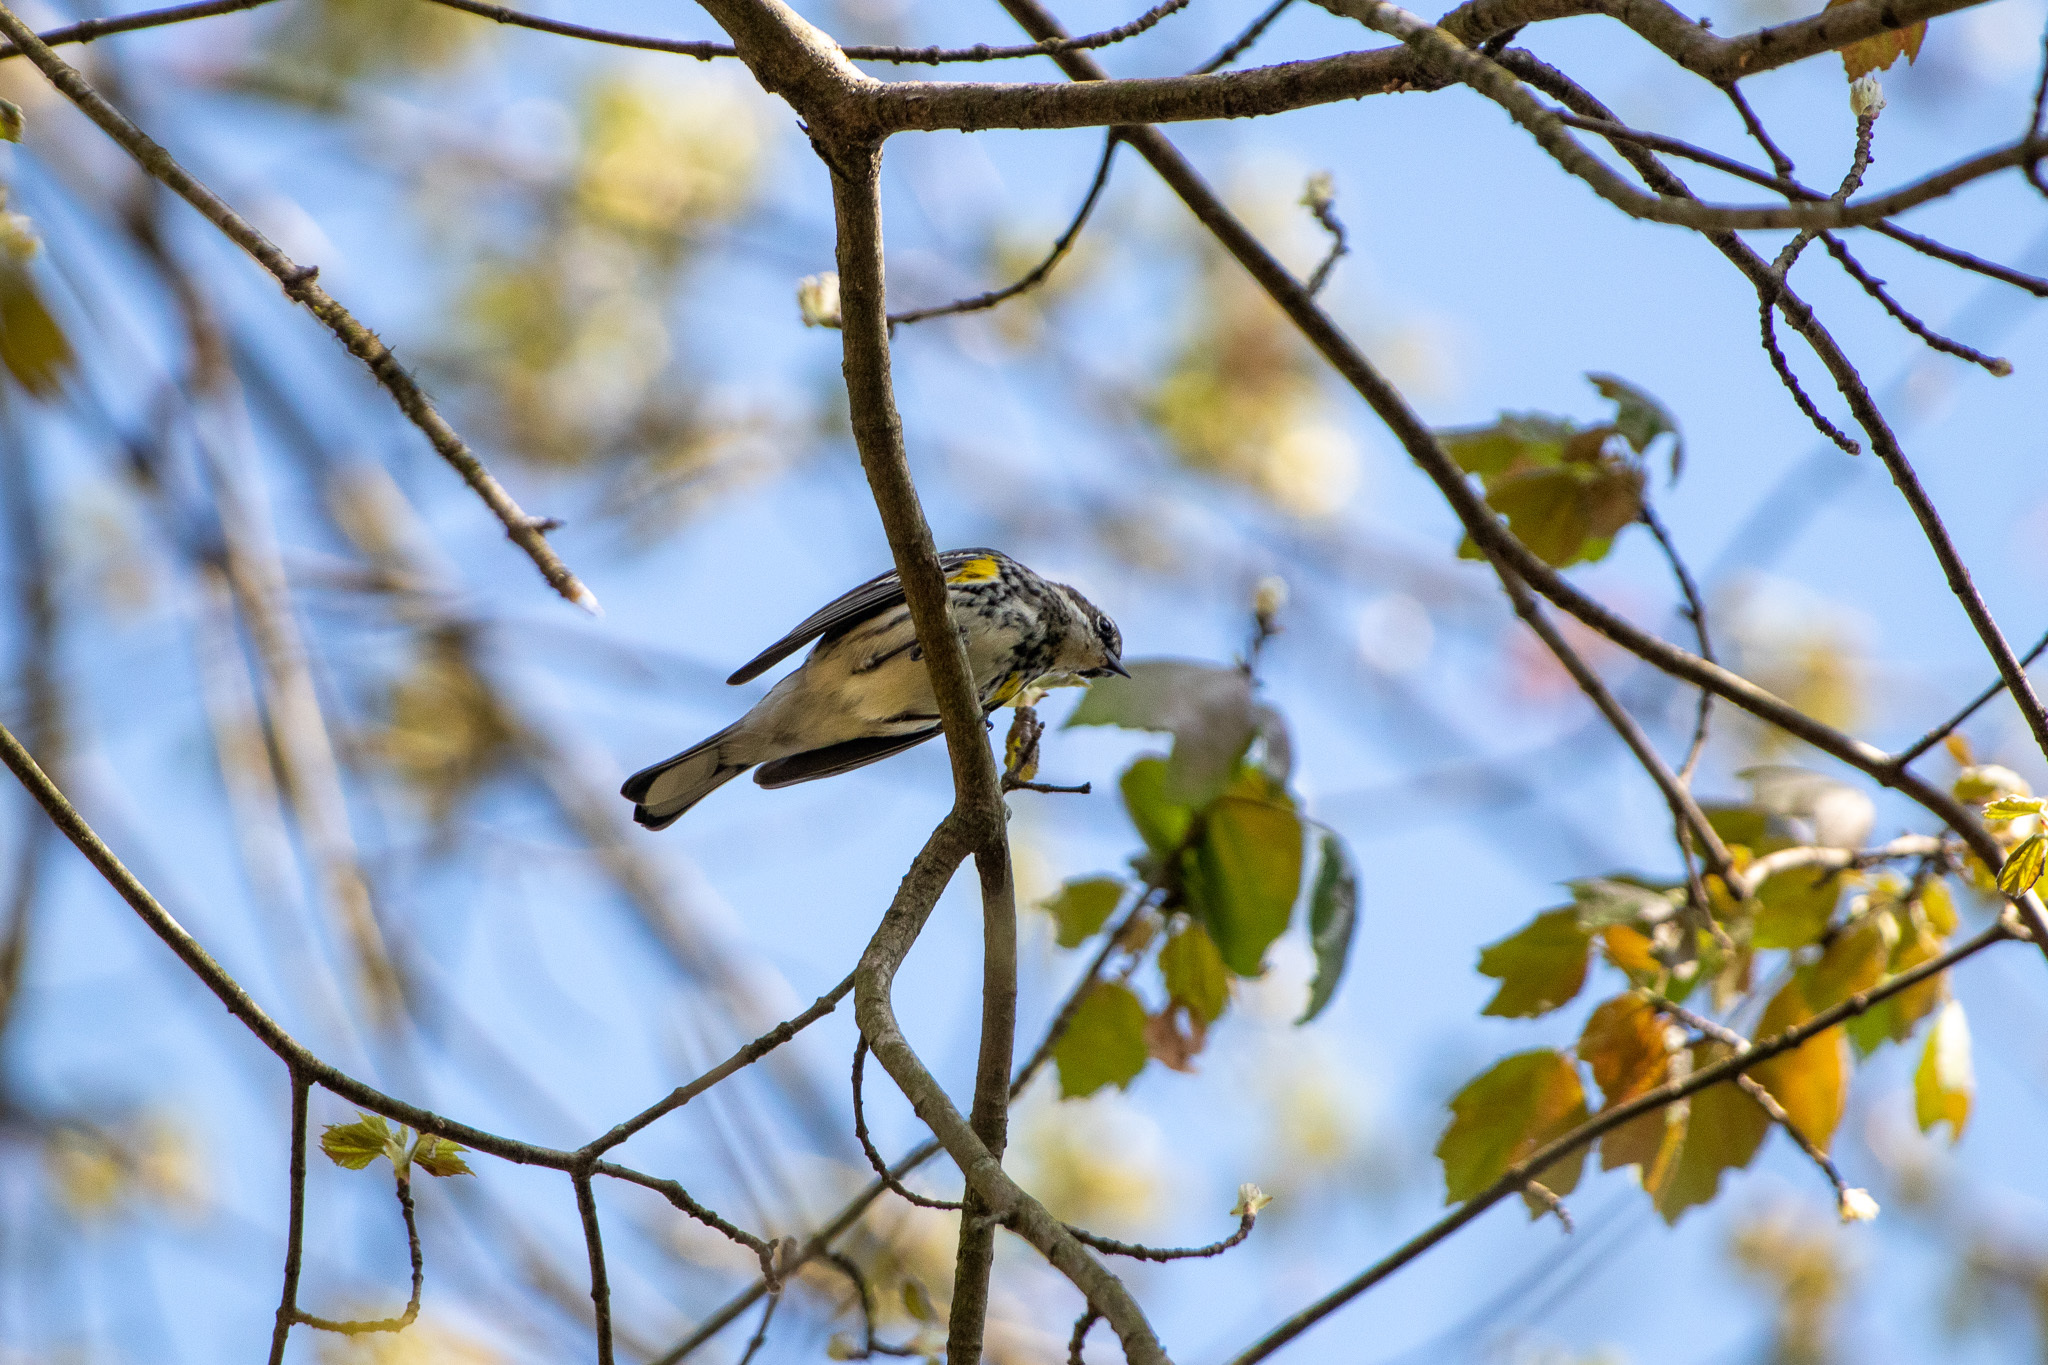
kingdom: Animalia
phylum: Chordata
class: Aves
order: Passeriformes
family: Parulidae
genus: Setophaga
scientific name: Setophaga coronata
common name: Myrtle warbler
